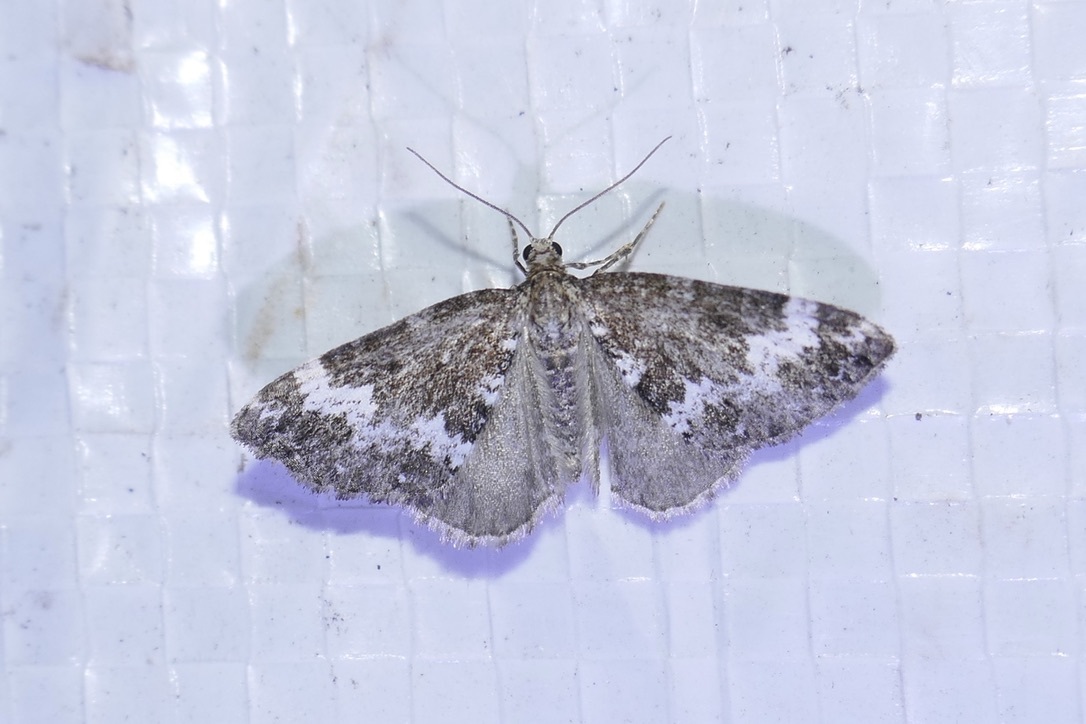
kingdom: Animalia
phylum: Arthropoda
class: Insecta
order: Lepidoptera
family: Geometridae
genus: Perizoma
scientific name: Perizoma alchemillata
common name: Small rivulet
